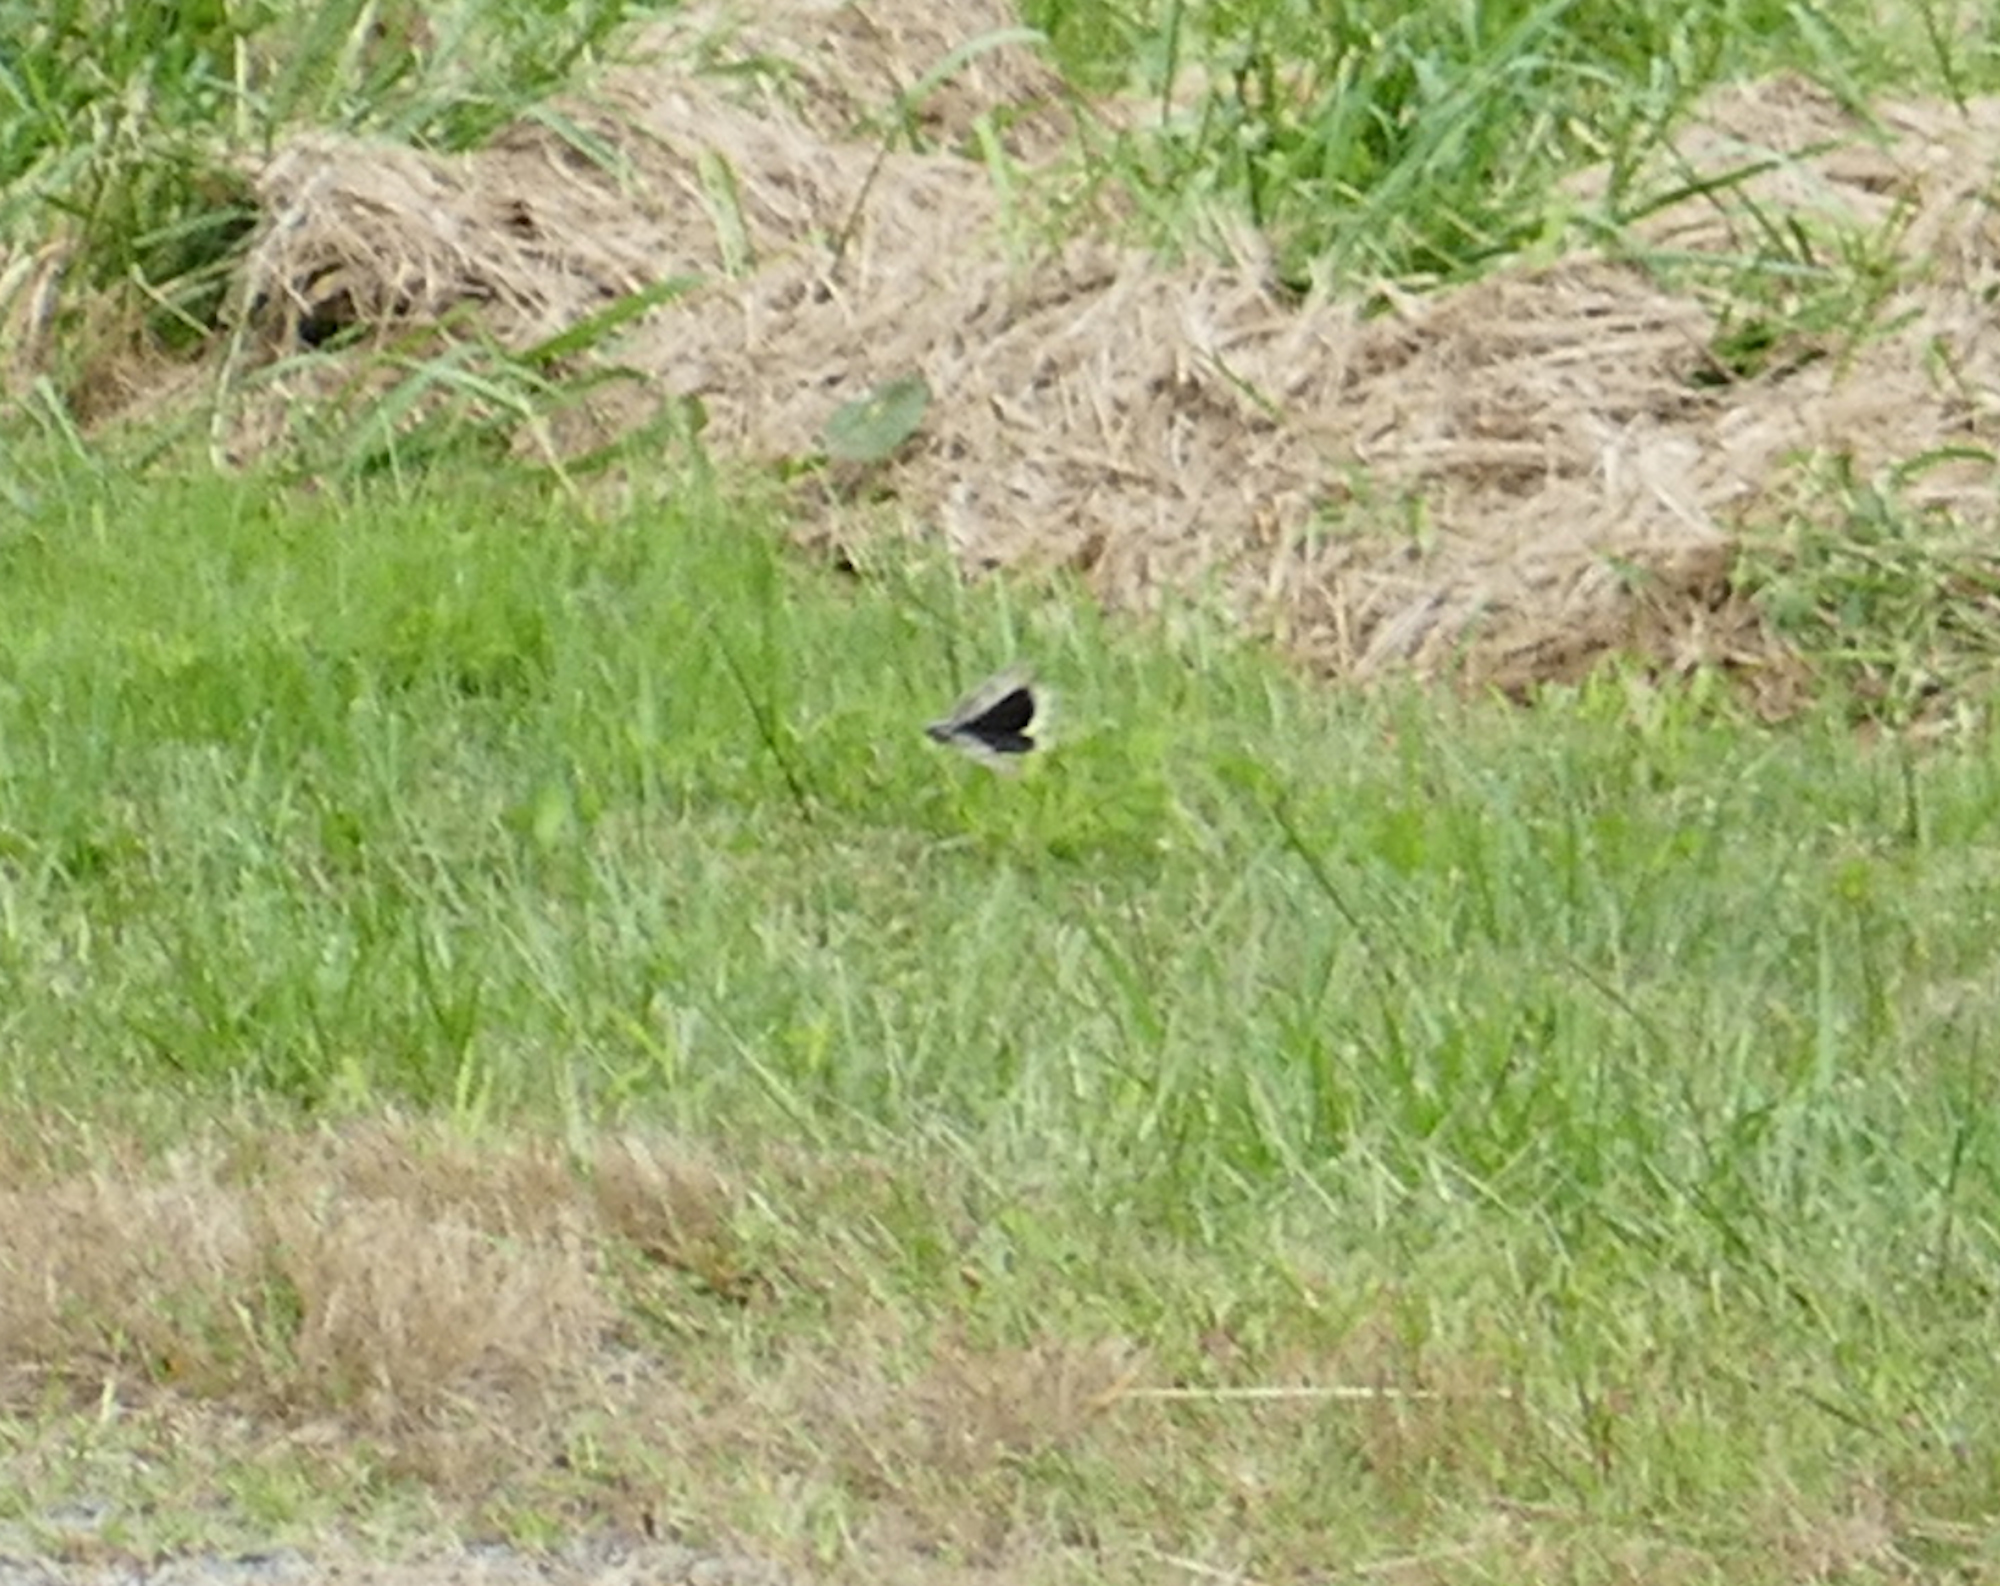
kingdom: Animalia
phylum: Arthropoda
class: Insecta
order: Orthoptera
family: Acrididae
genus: Dissosteira
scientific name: Dissosteira carolina
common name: Carolina grasshopper
